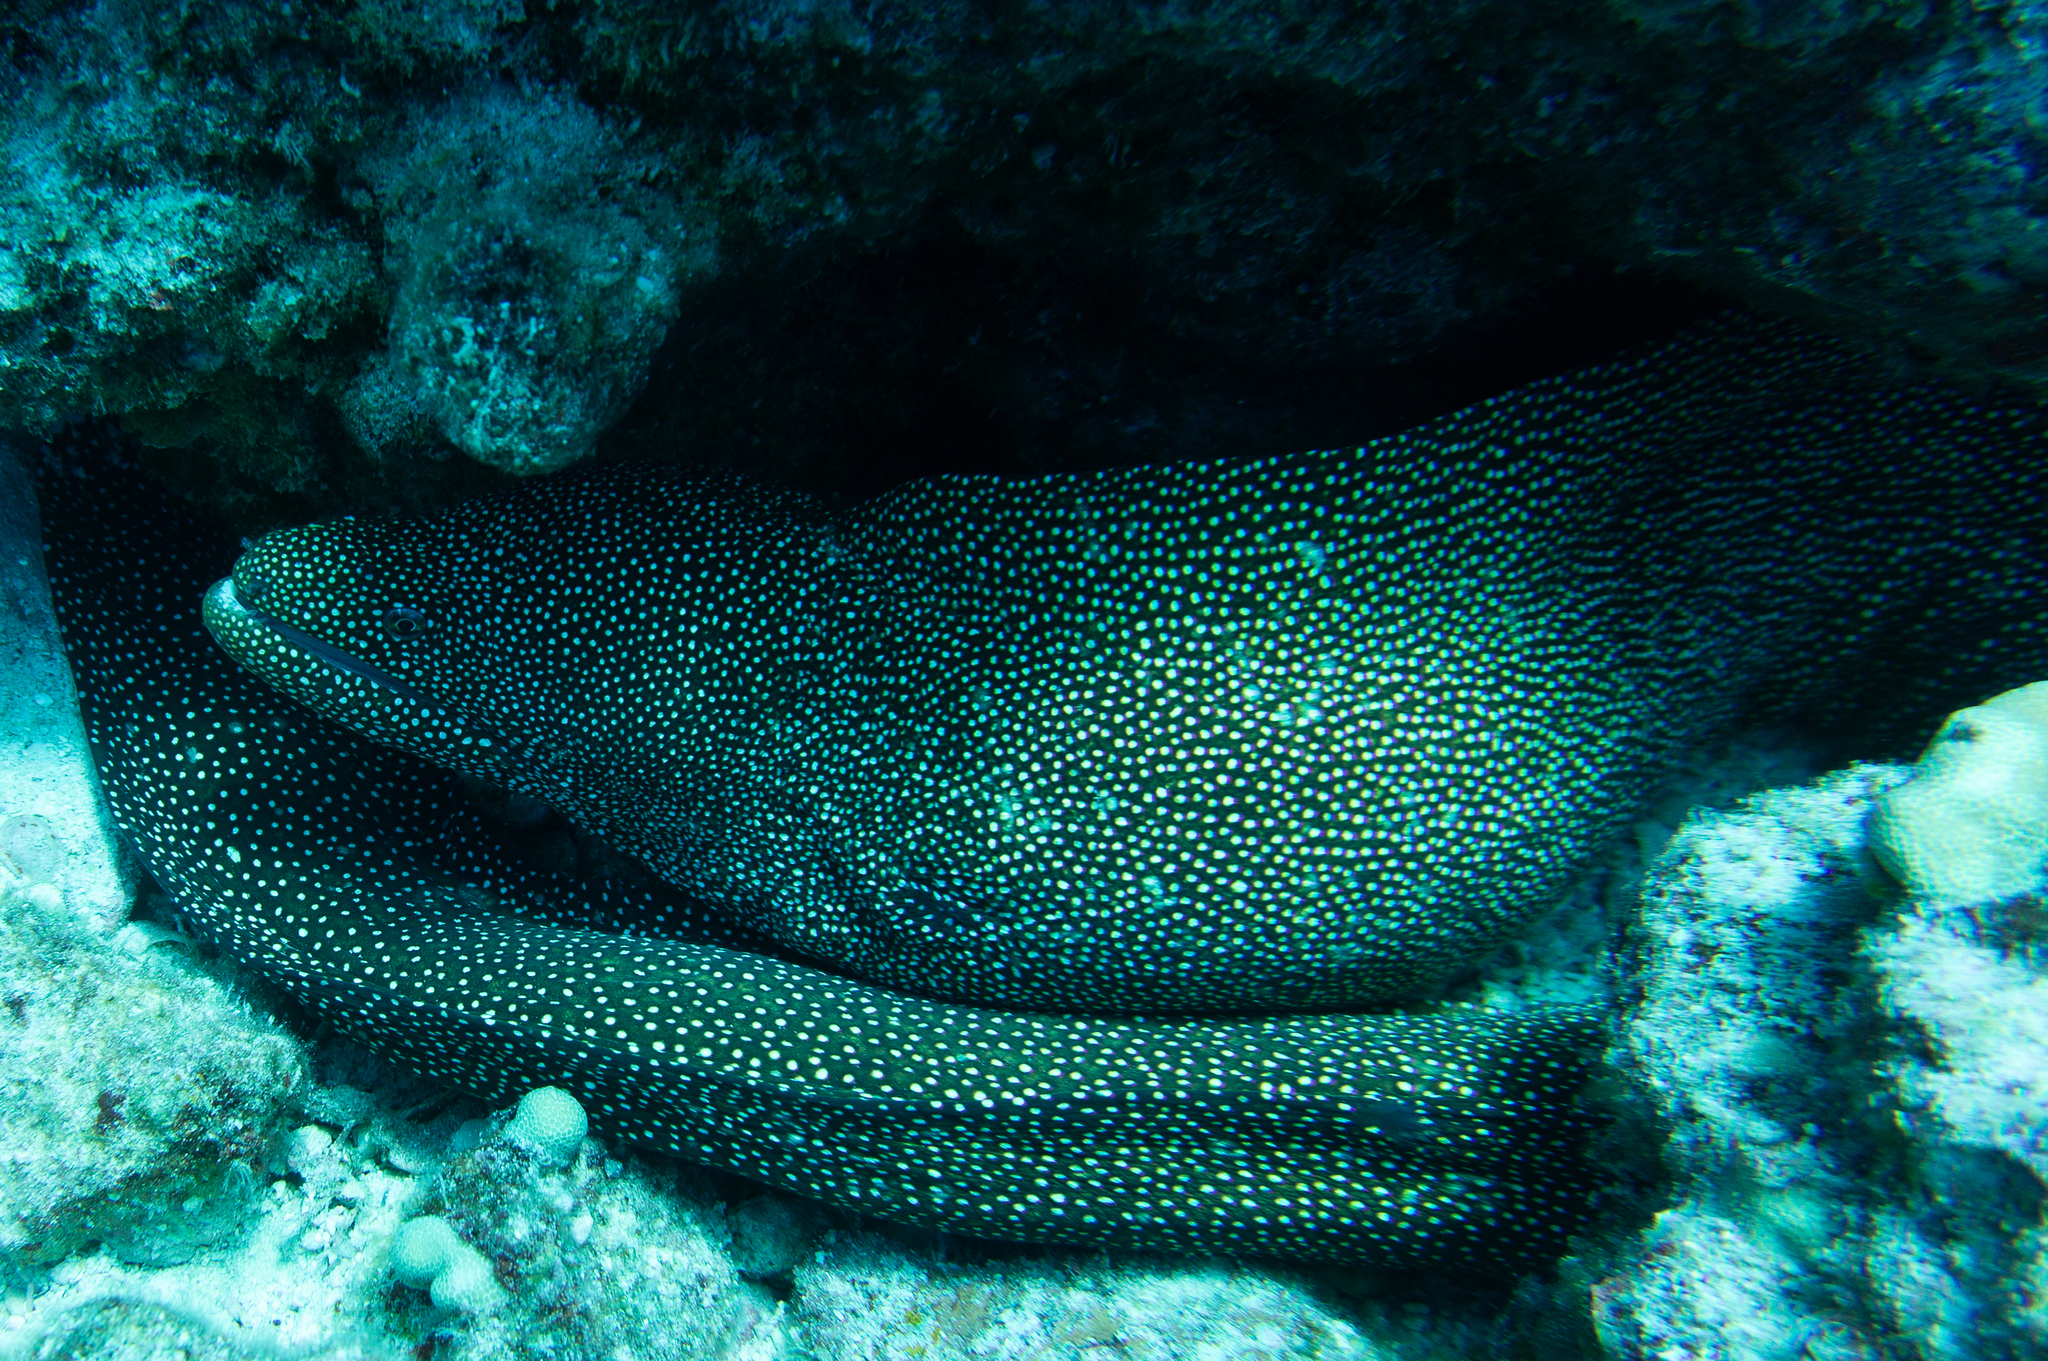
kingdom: Animalia
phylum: Chordata
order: Anguilliformes
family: Muraenidae
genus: Gymnothorax
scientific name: Gymnothorax meleagris
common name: Guineafowl moray
